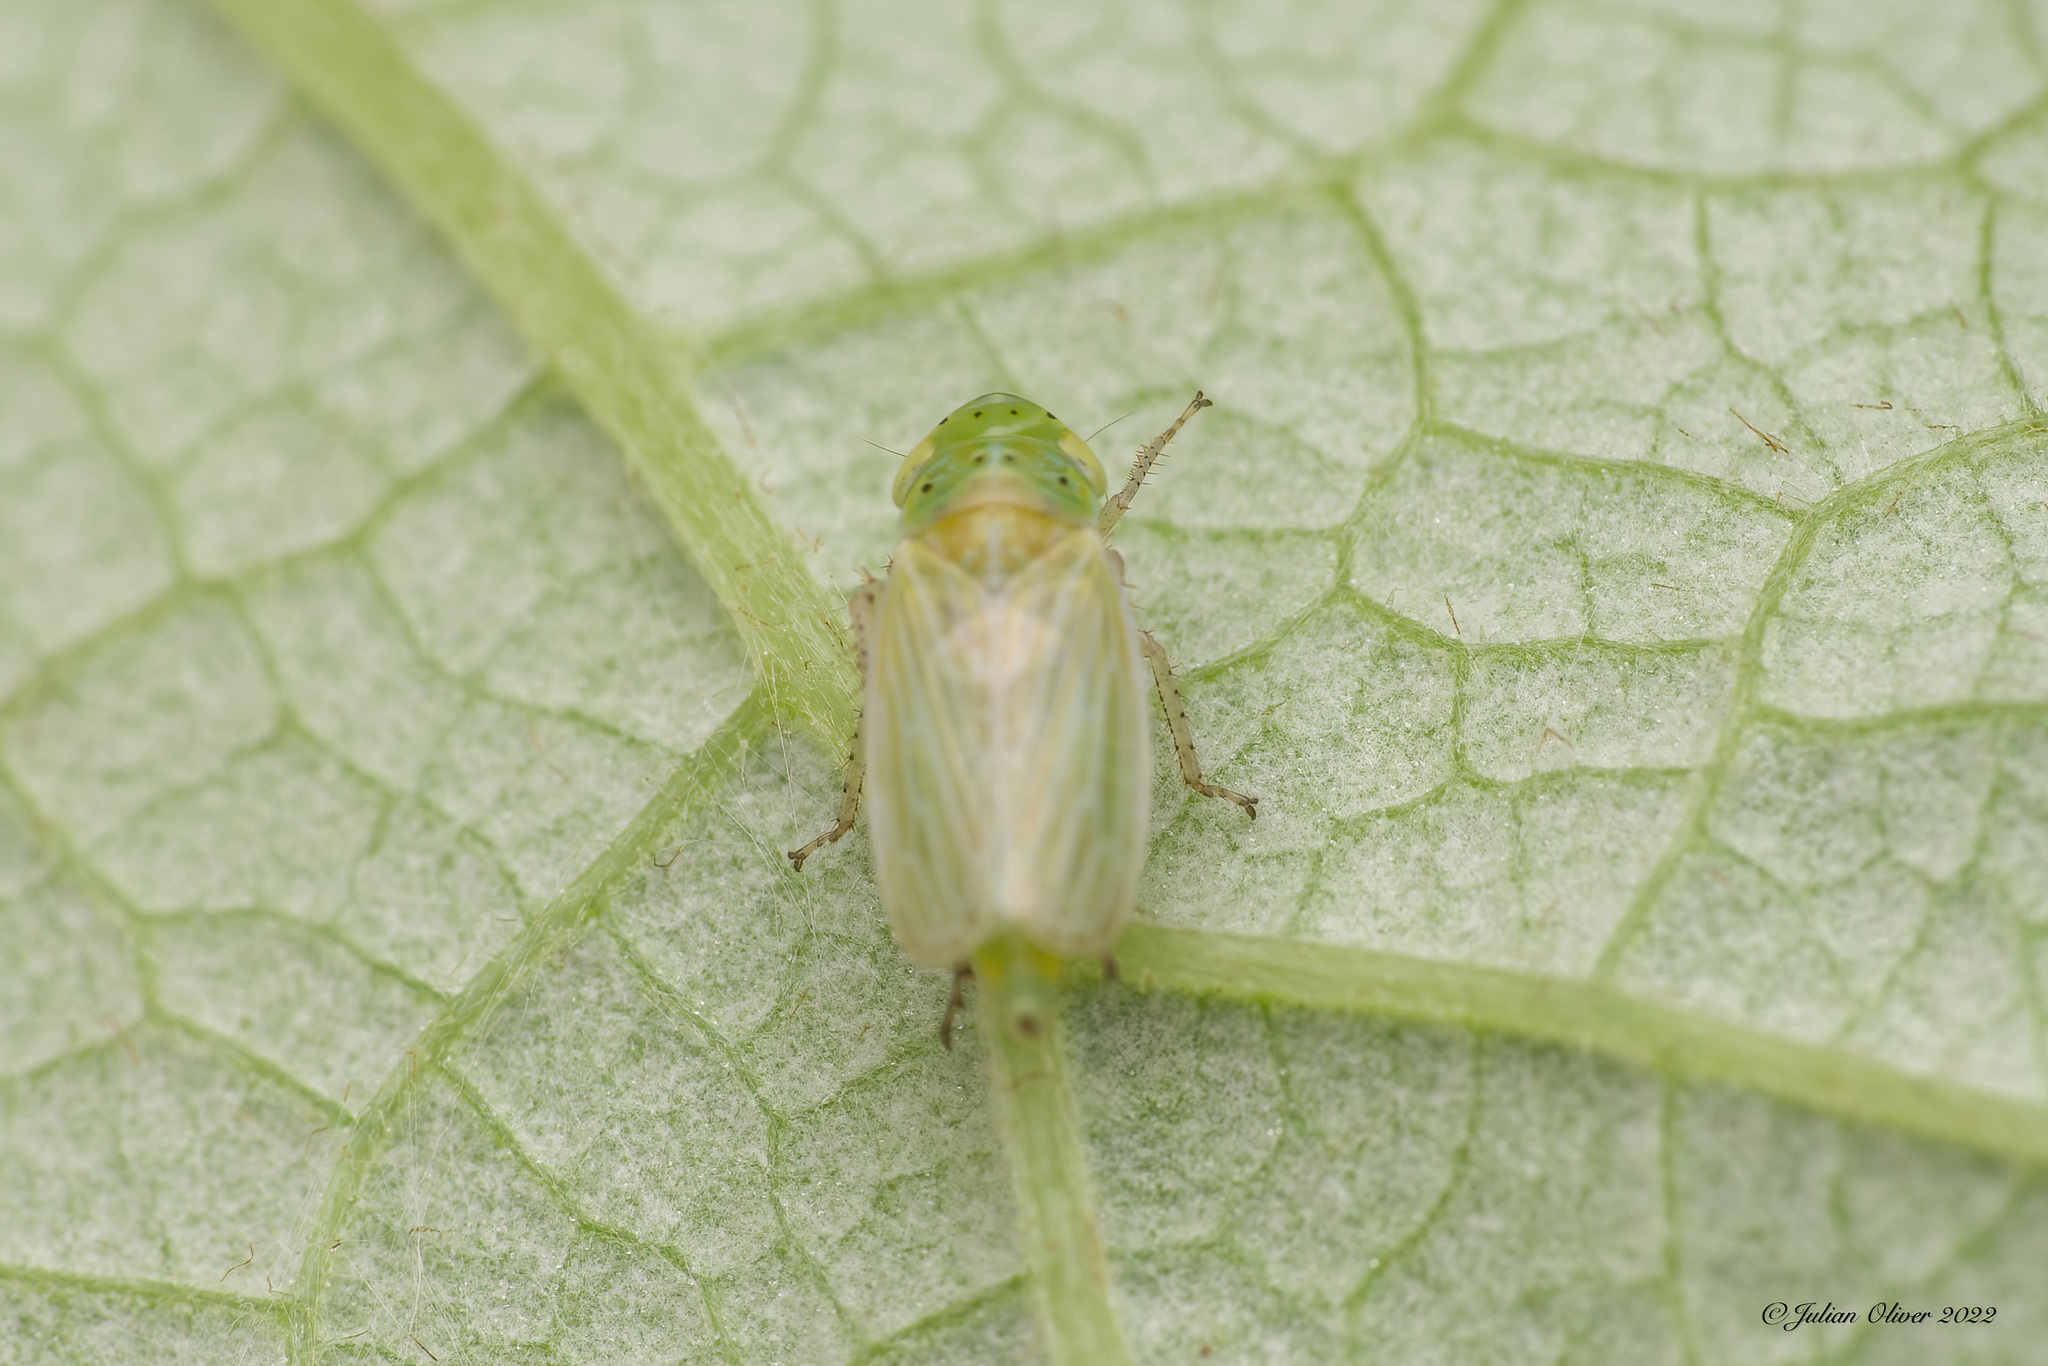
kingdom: Animalia
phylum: Arthropoda
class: Insecta
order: Hemiptera
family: Cicadellidae
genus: Graphocraerus
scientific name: Graphocraerus ventralis
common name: Leafhopper
